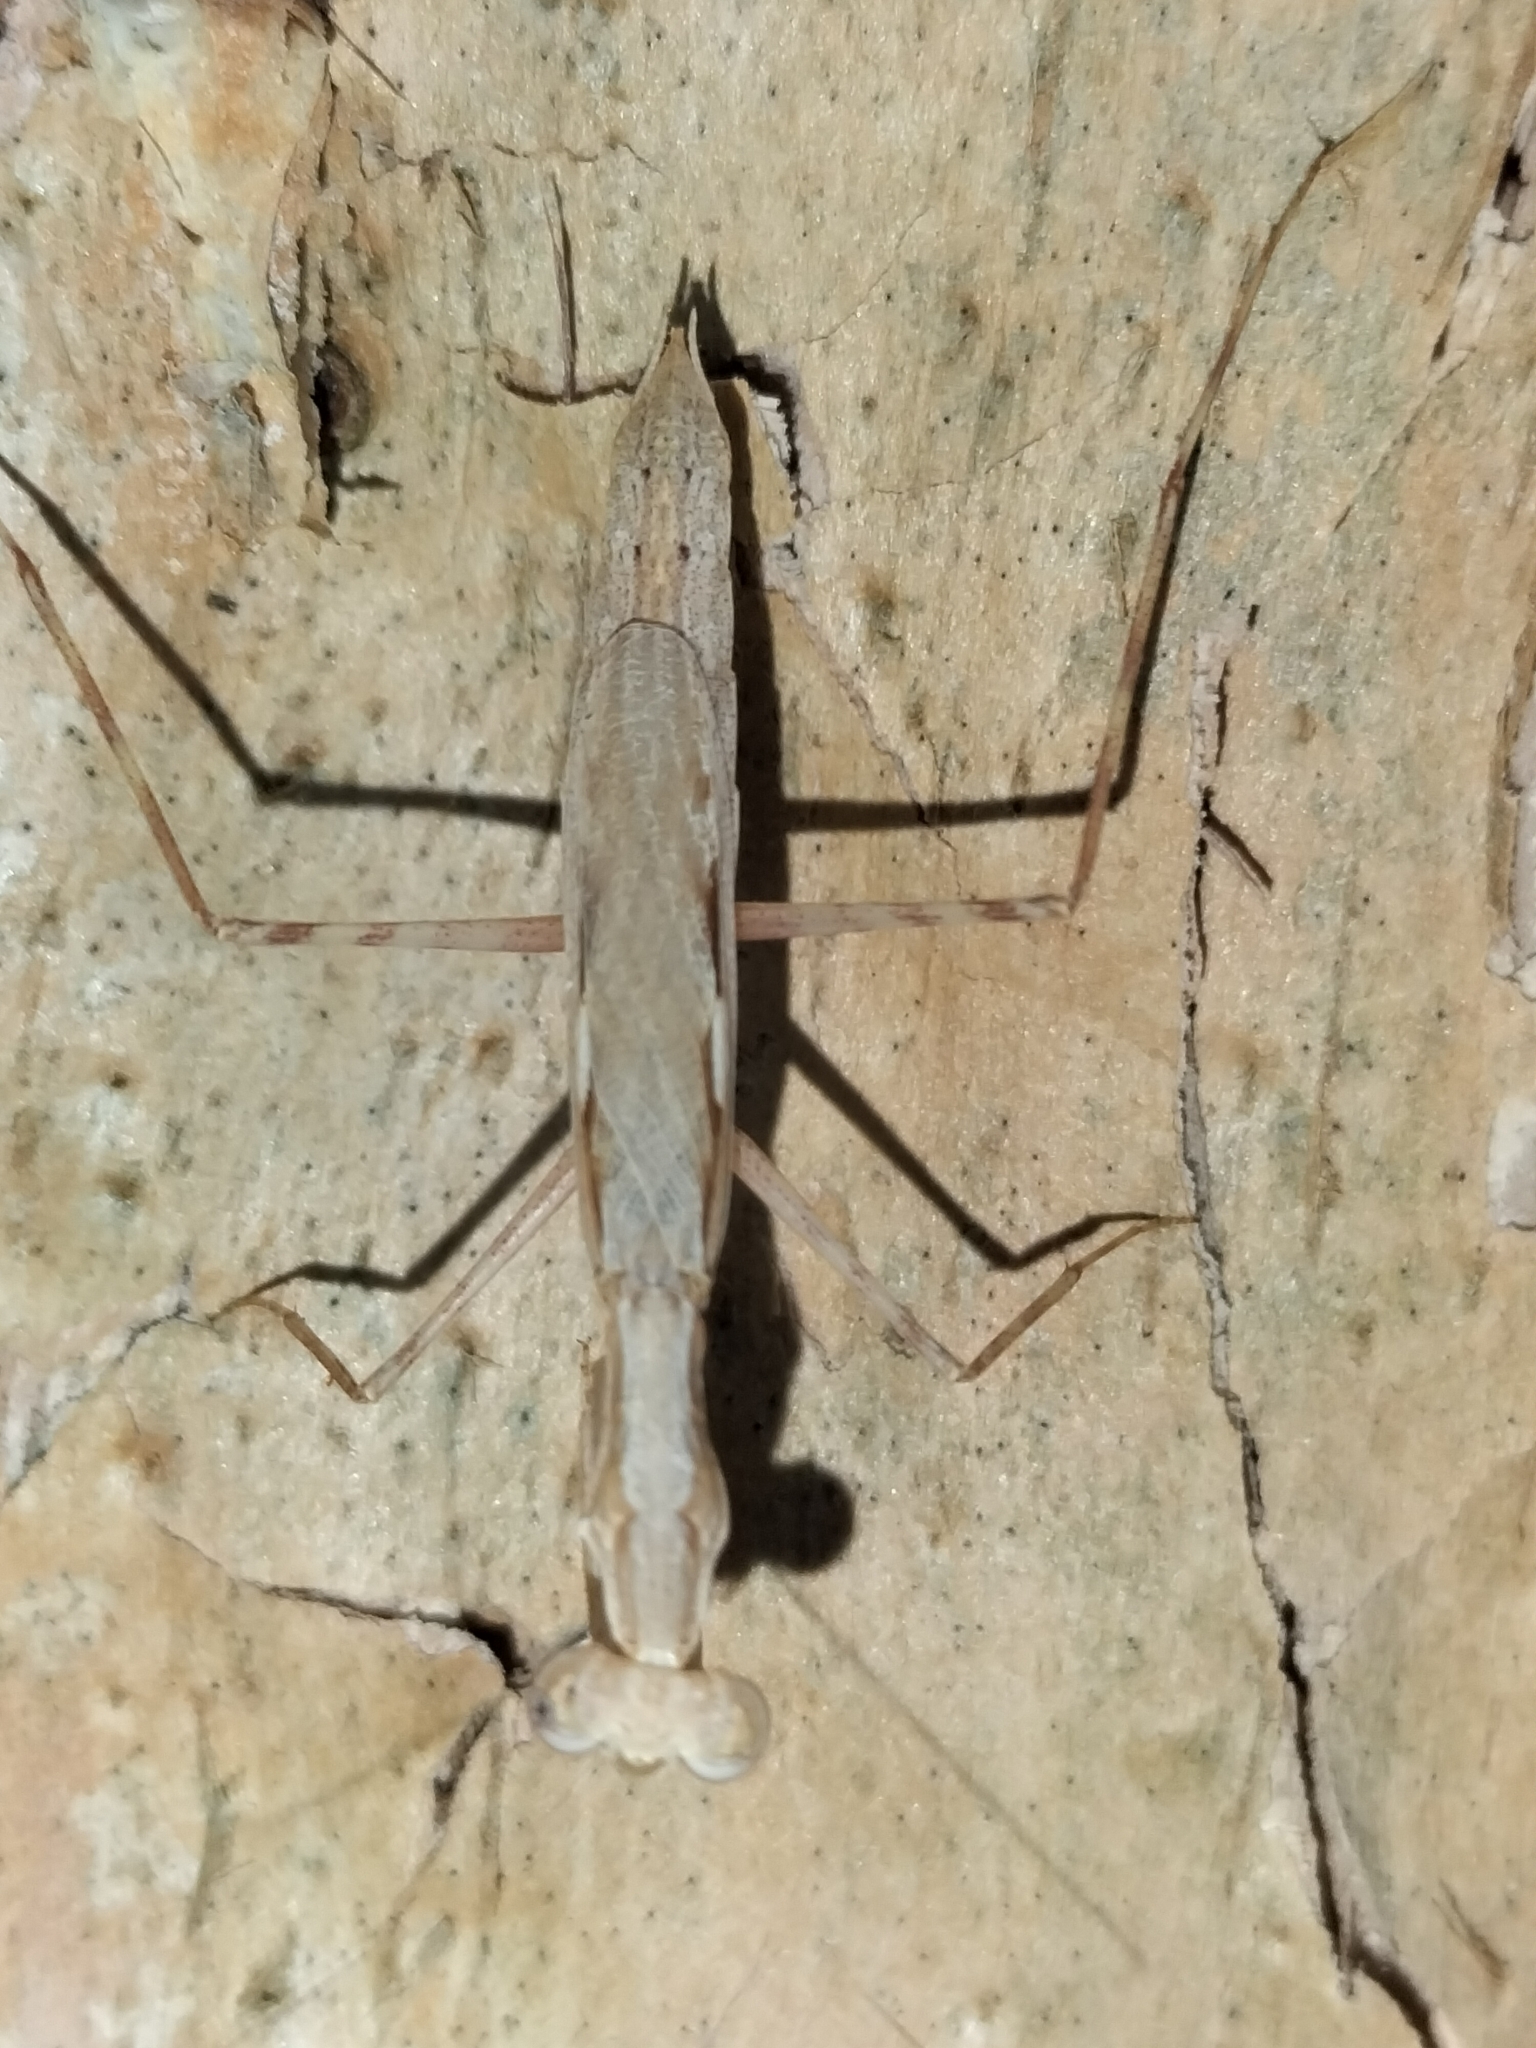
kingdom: Animalia
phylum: Arthropoda
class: Insecta
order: Mantodea
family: Nanomantidae
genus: Ima
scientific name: Ima fusca
